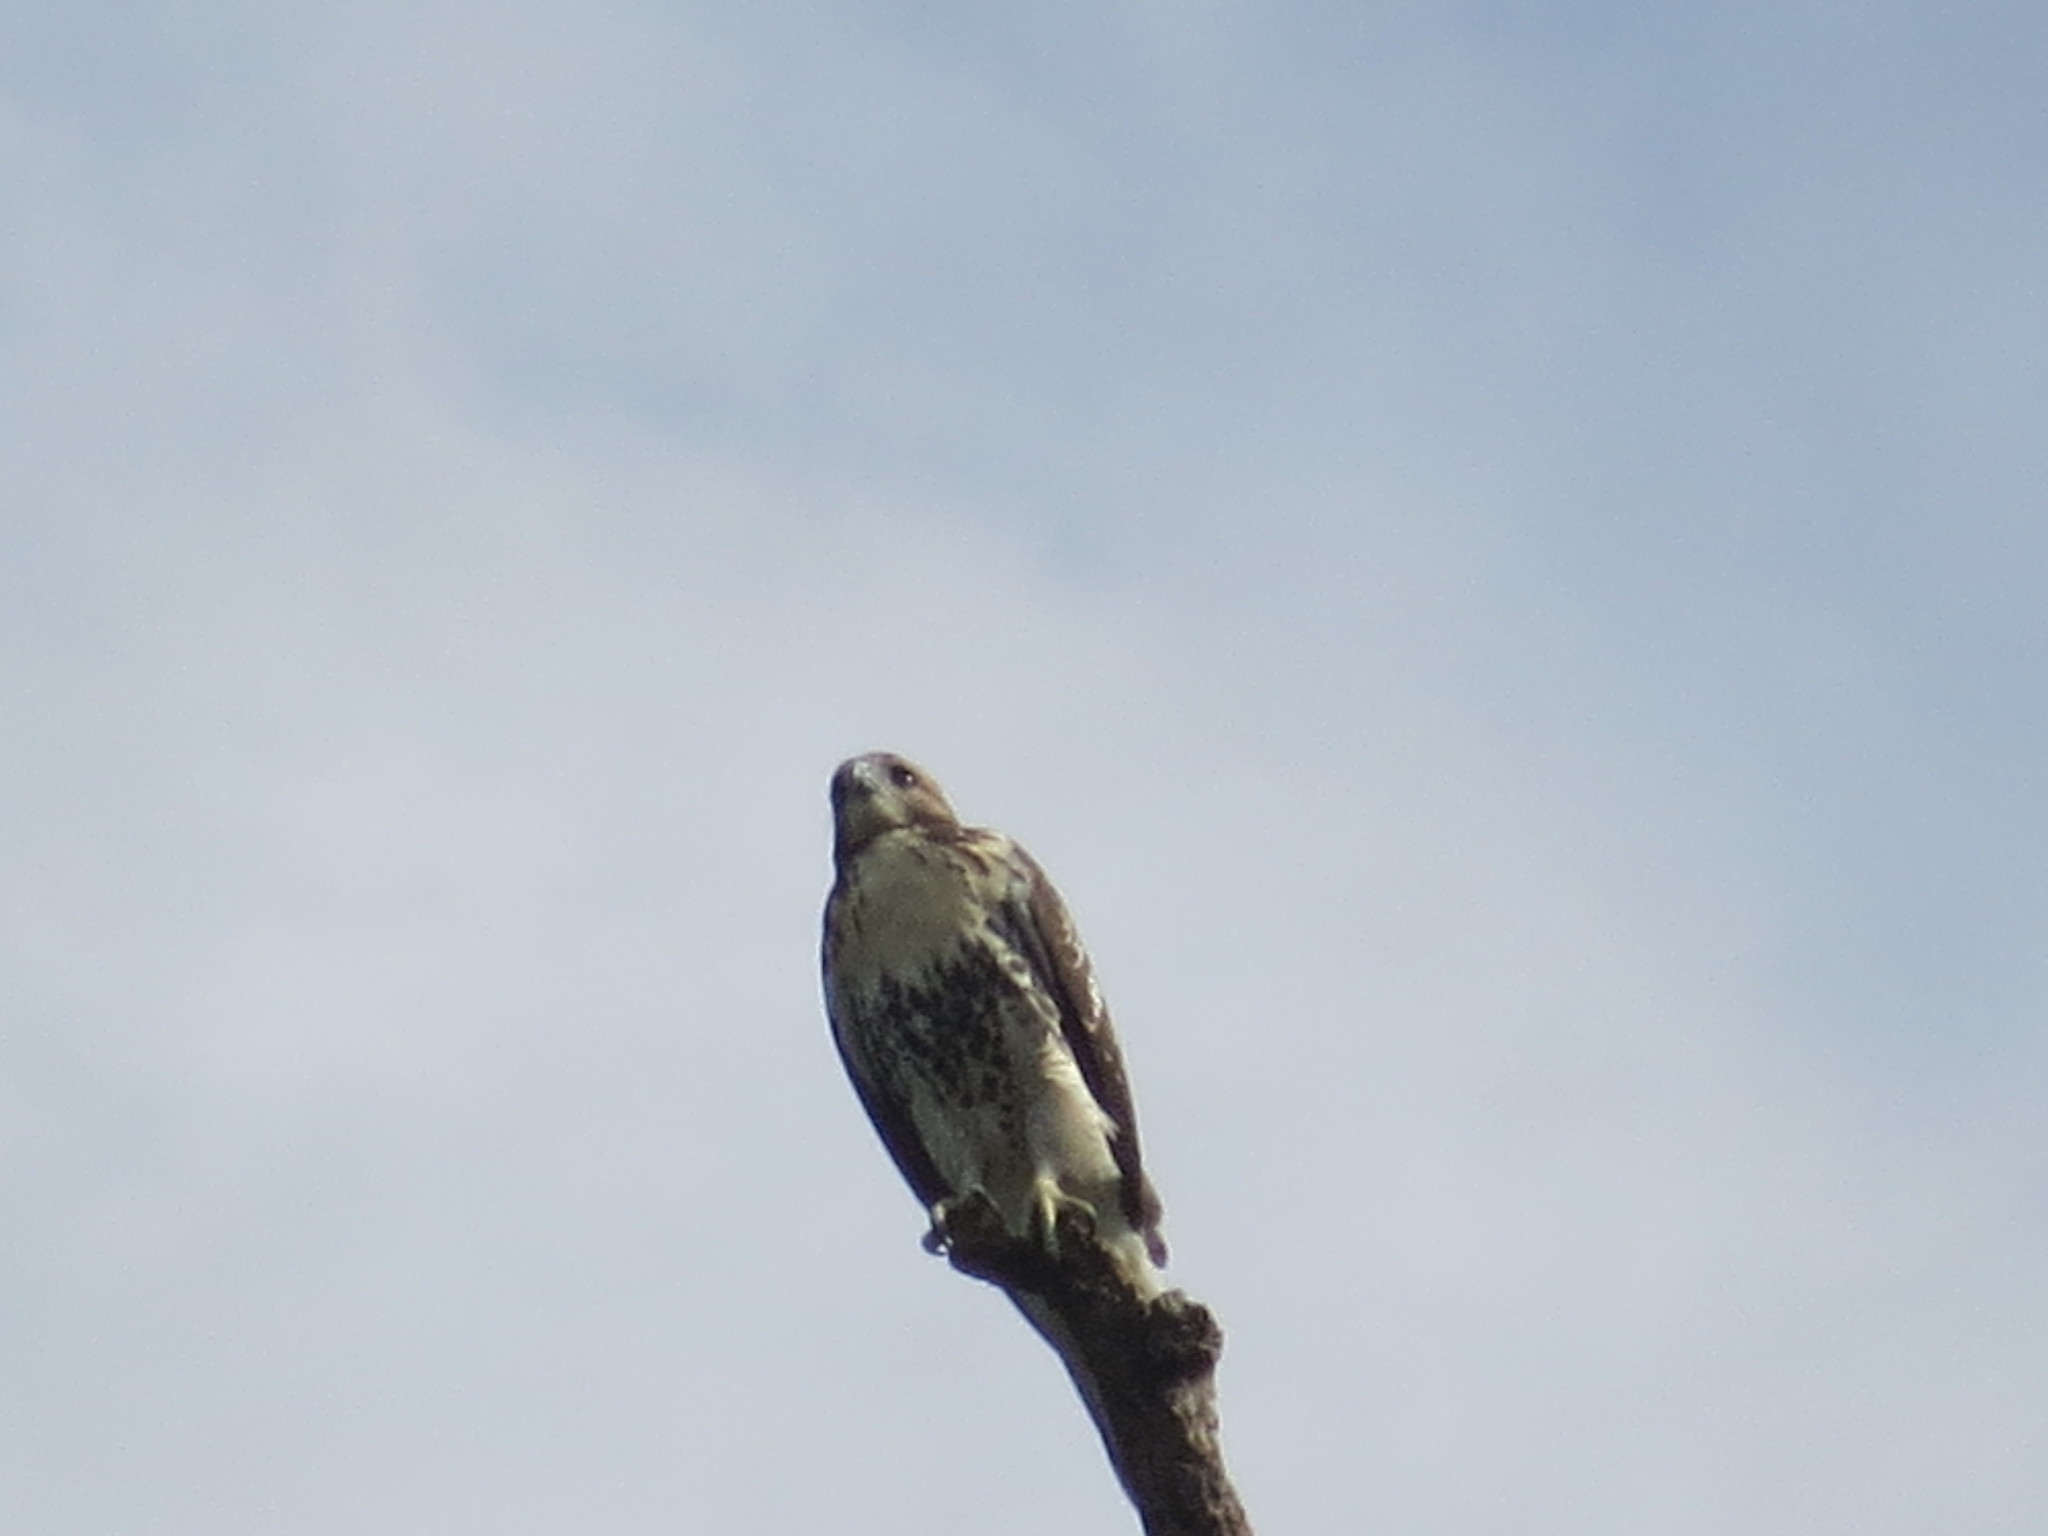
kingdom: Animalia
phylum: Chordata
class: Aves
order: Accipitriformes
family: Accipitridae
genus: Buteo
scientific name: Buteo jamaicensis
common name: Red-tailed hawk
